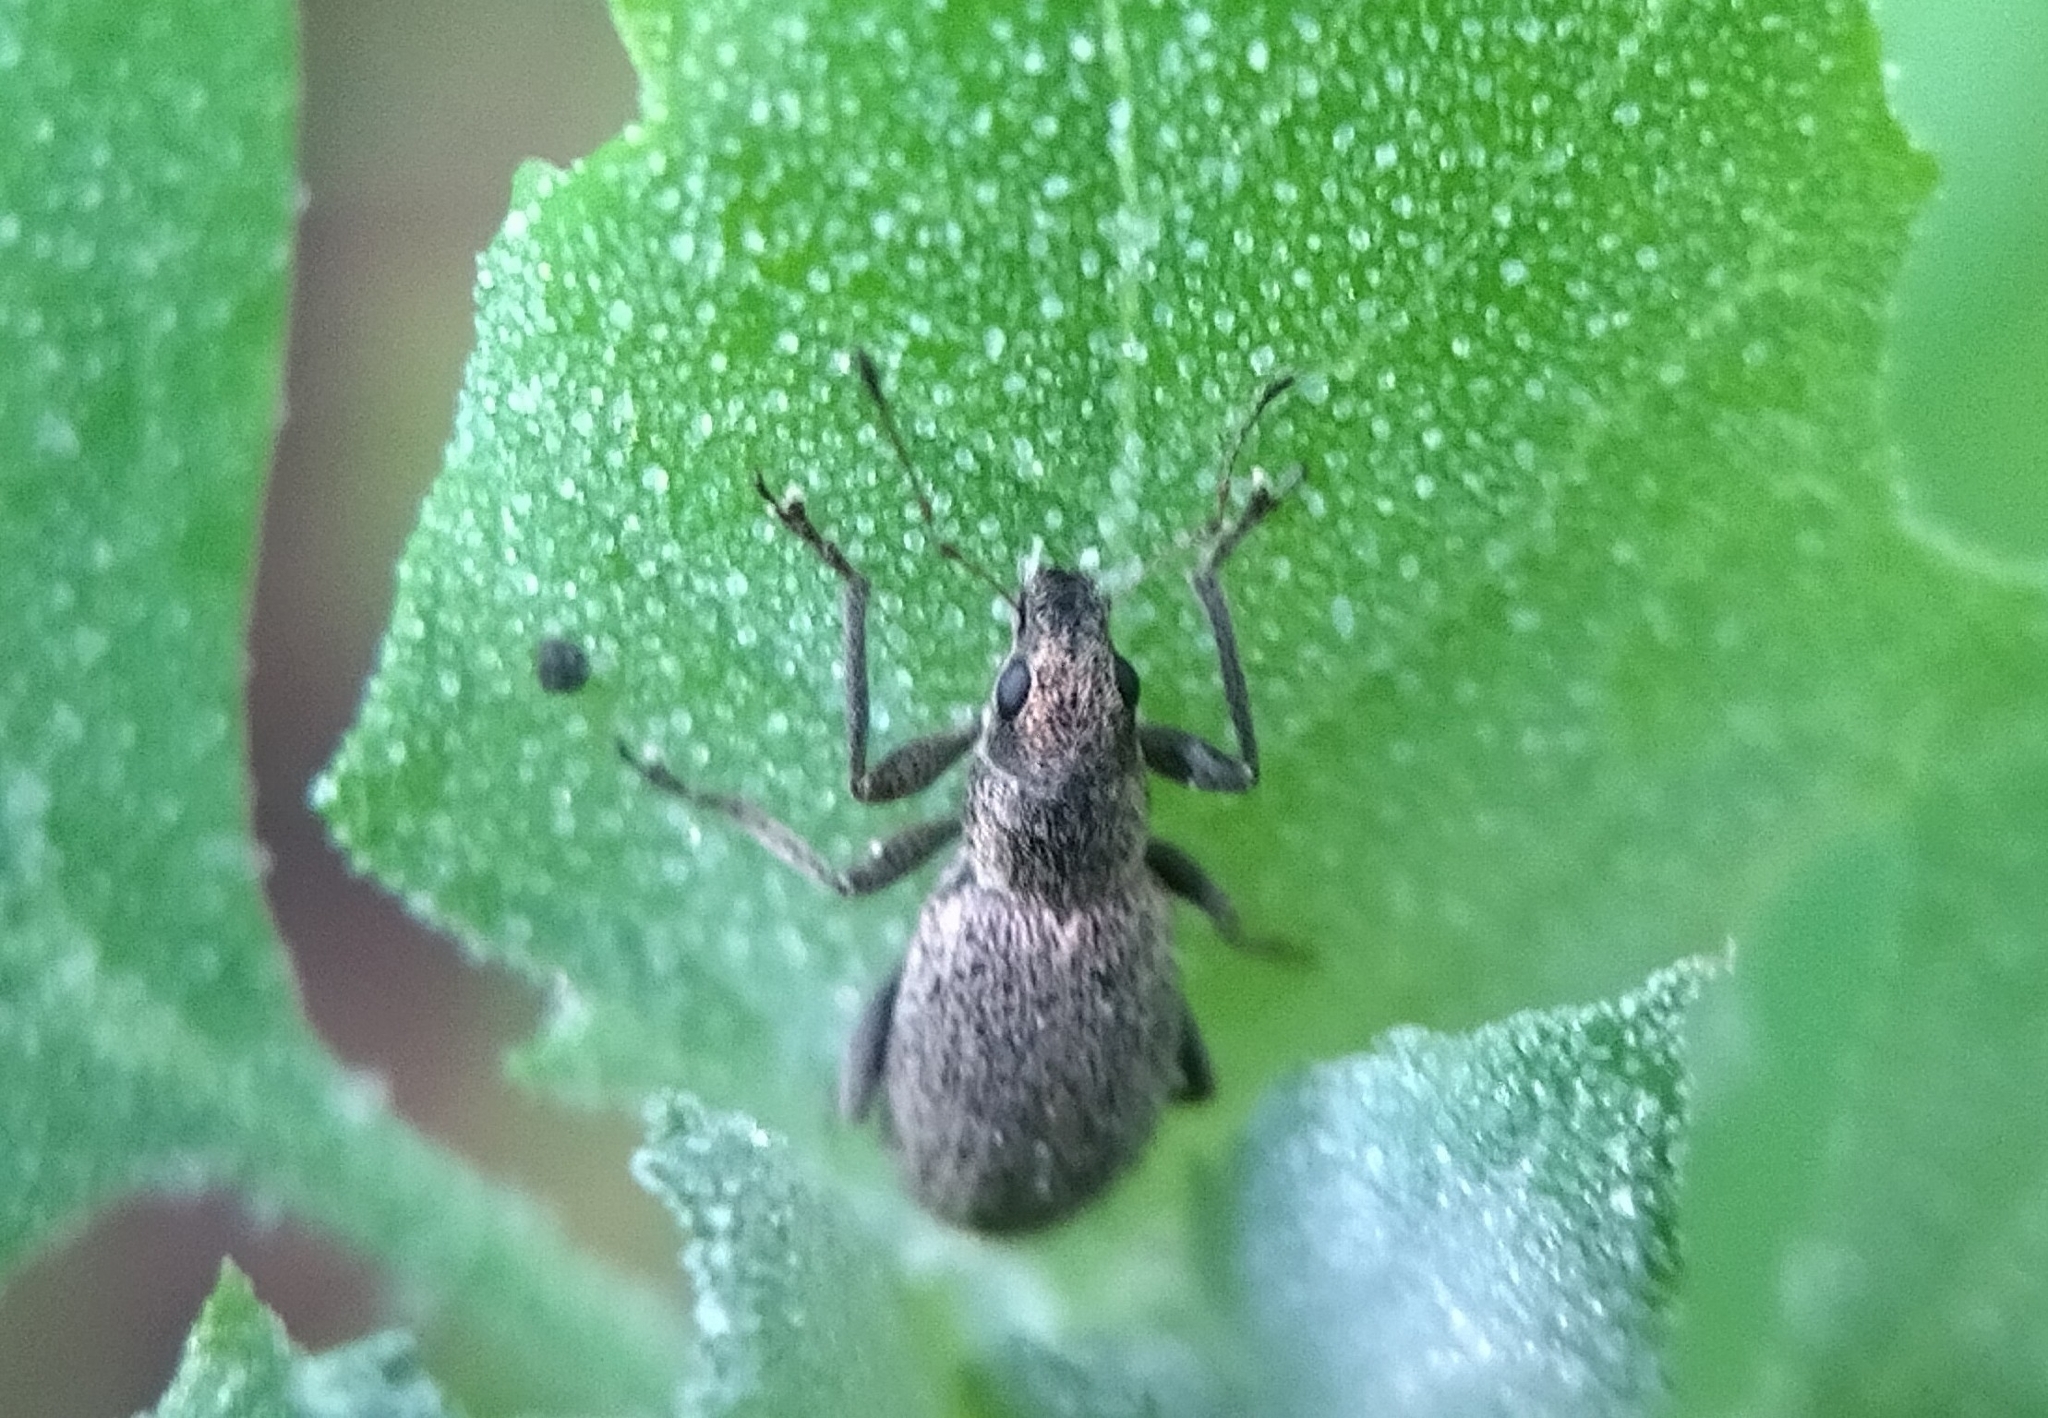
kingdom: Animalia
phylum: Arthropoda
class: Insecta
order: Coleoptera
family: Curculionidae
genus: Polydrusus
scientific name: Polydrusus inustus
